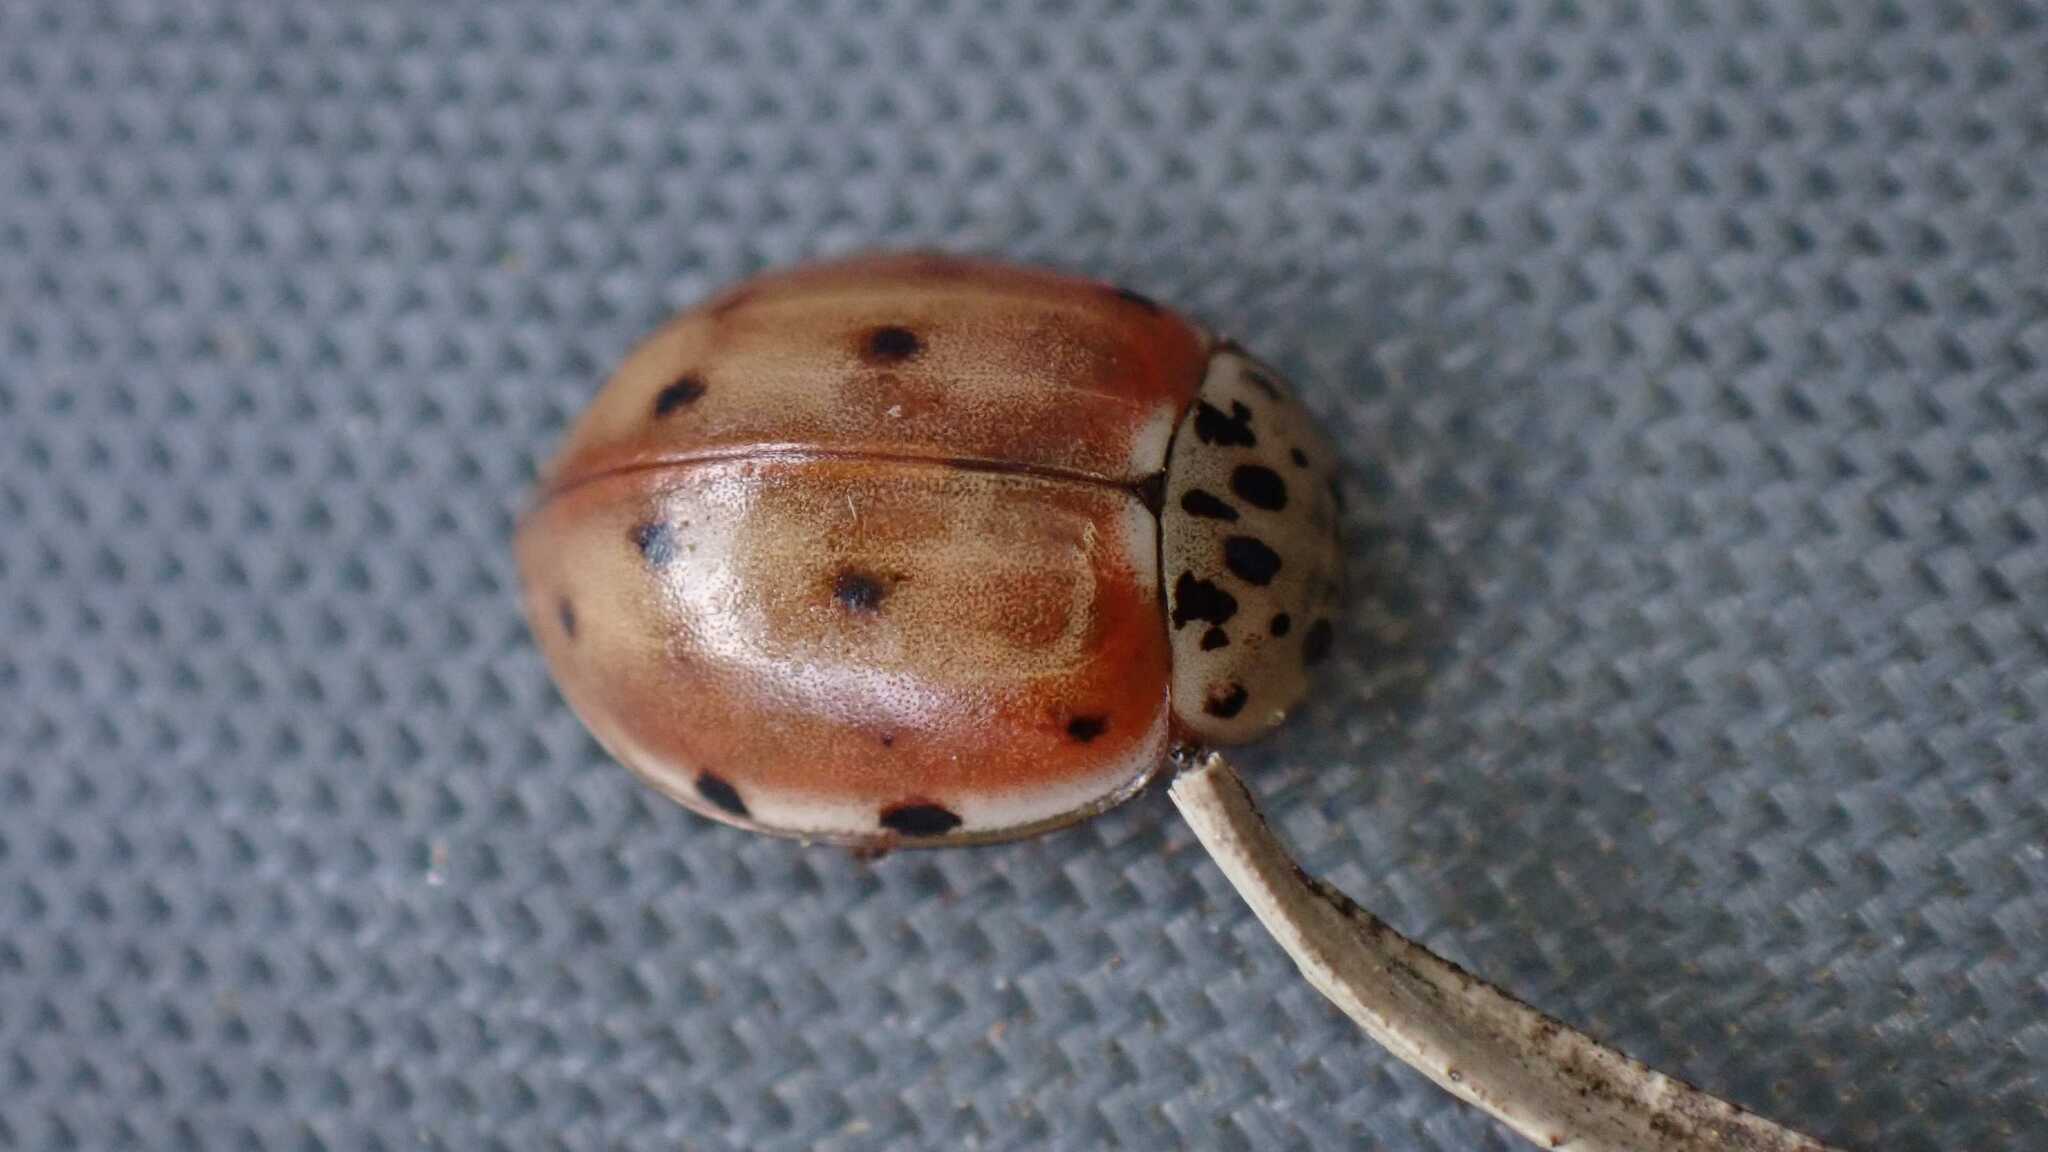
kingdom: Animalia
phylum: Arthropoda
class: Insecta
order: Coleoptera
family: Coccinellidae
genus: Harmonia
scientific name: Harmonia quadripunctata
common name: Cream-streaked ladybird
